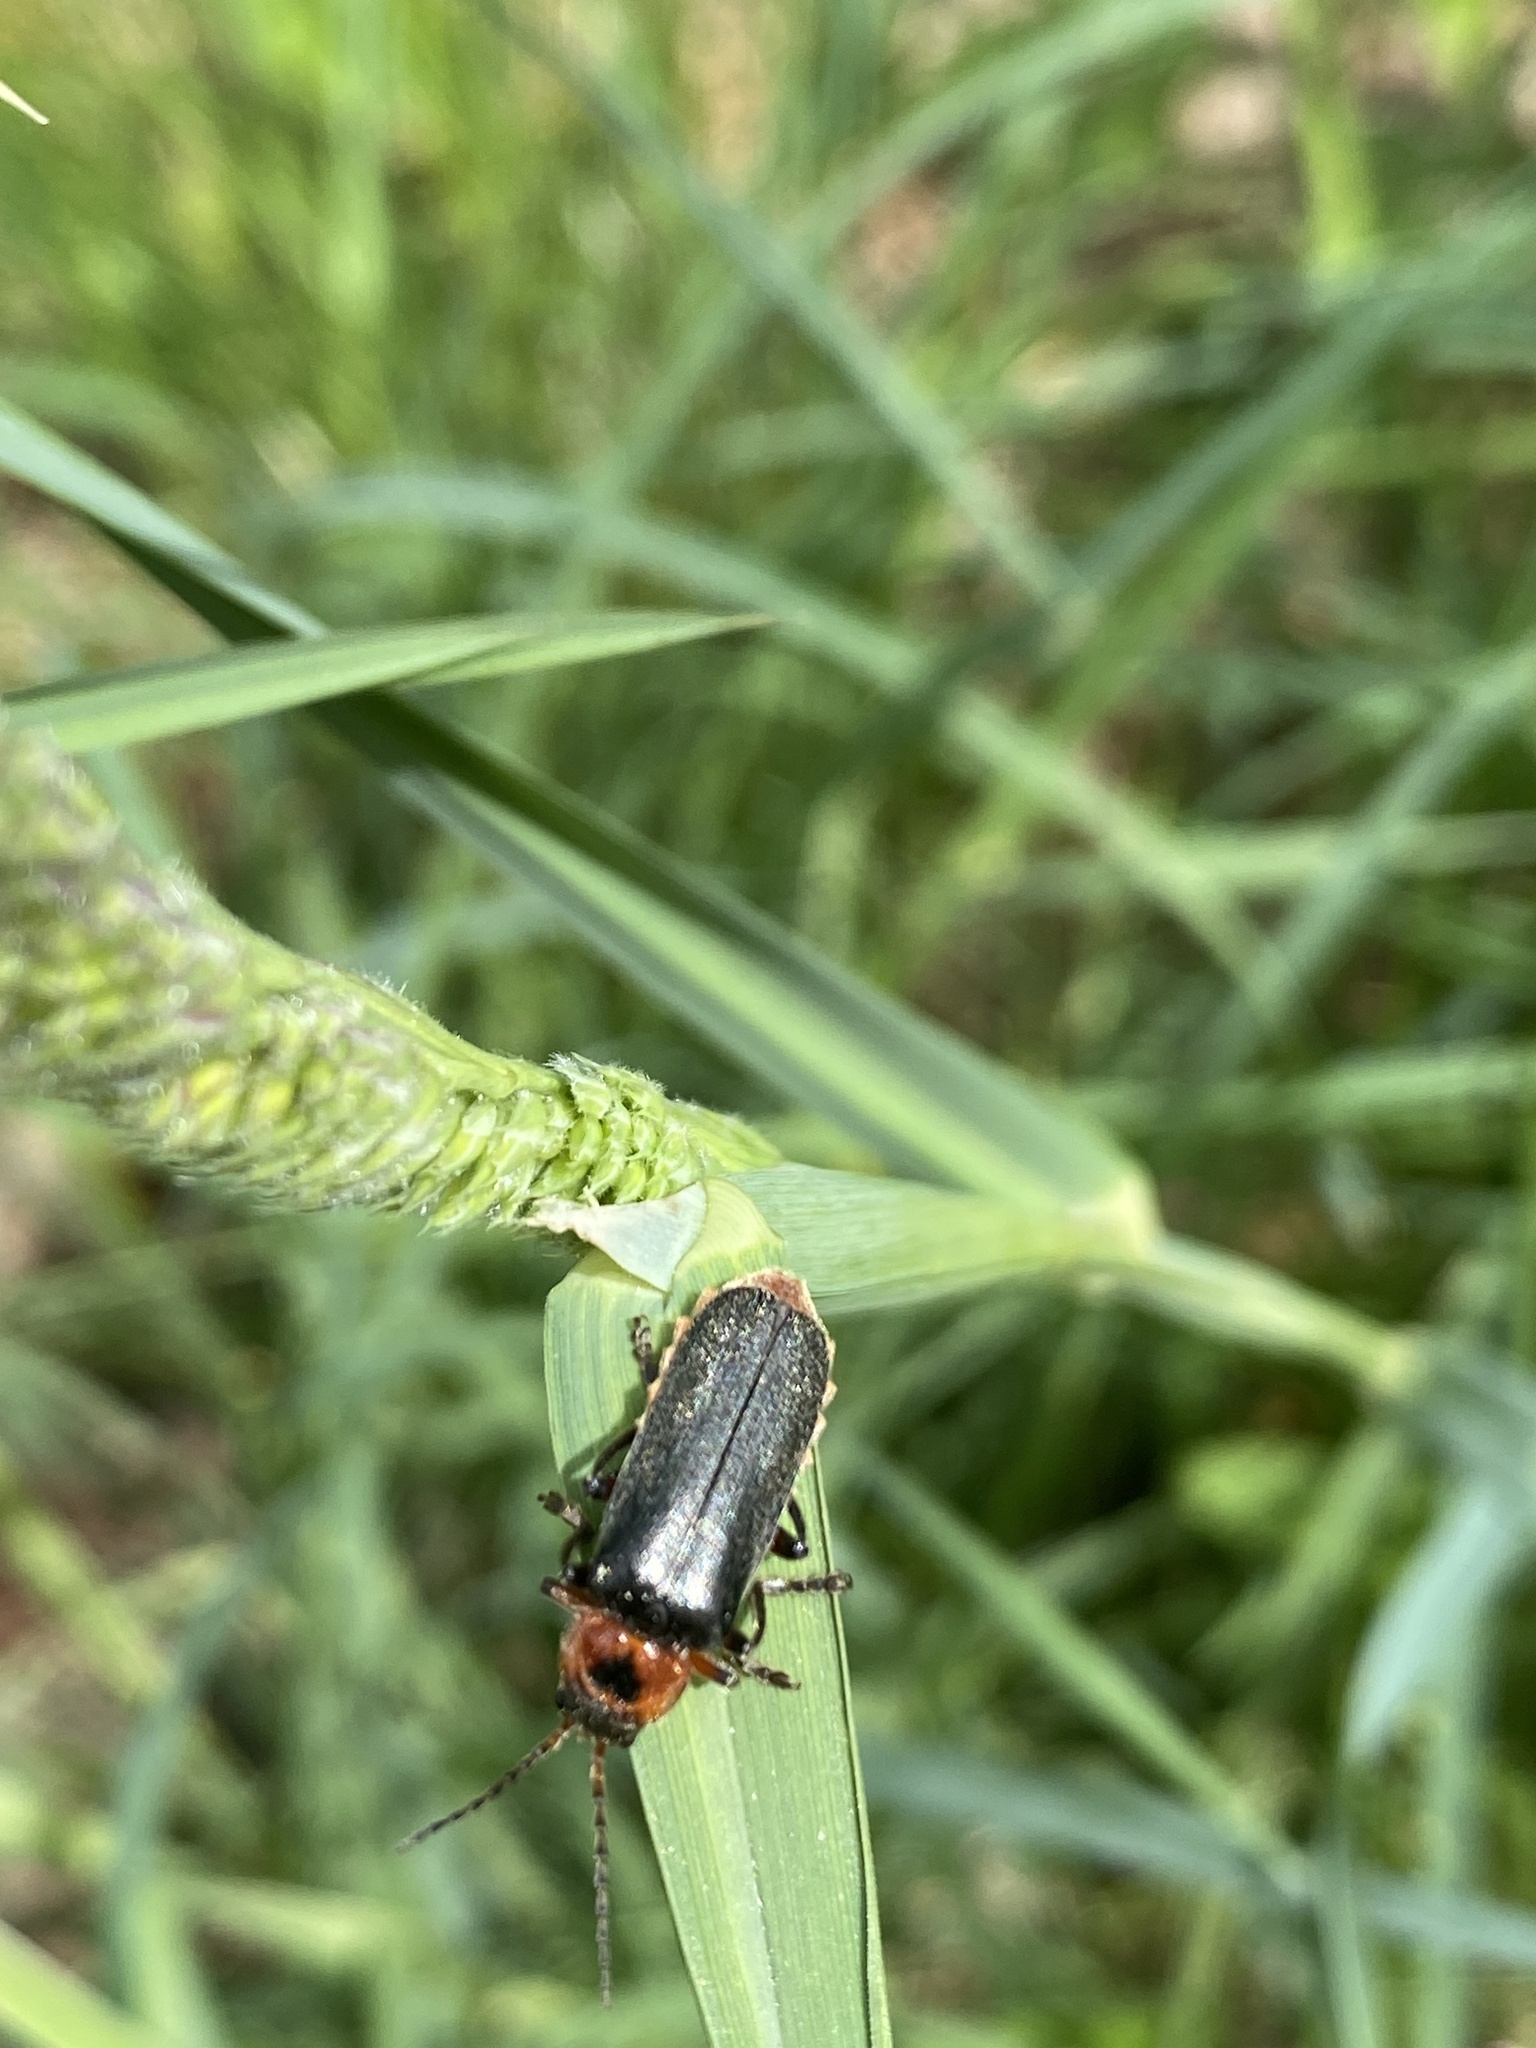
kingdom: Animalia
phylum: Arthropoda
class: Insecta
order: Coleoptera
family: Cantharidae
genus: Cantharis
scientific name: Cantharis rustica
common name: Soldier beetle
